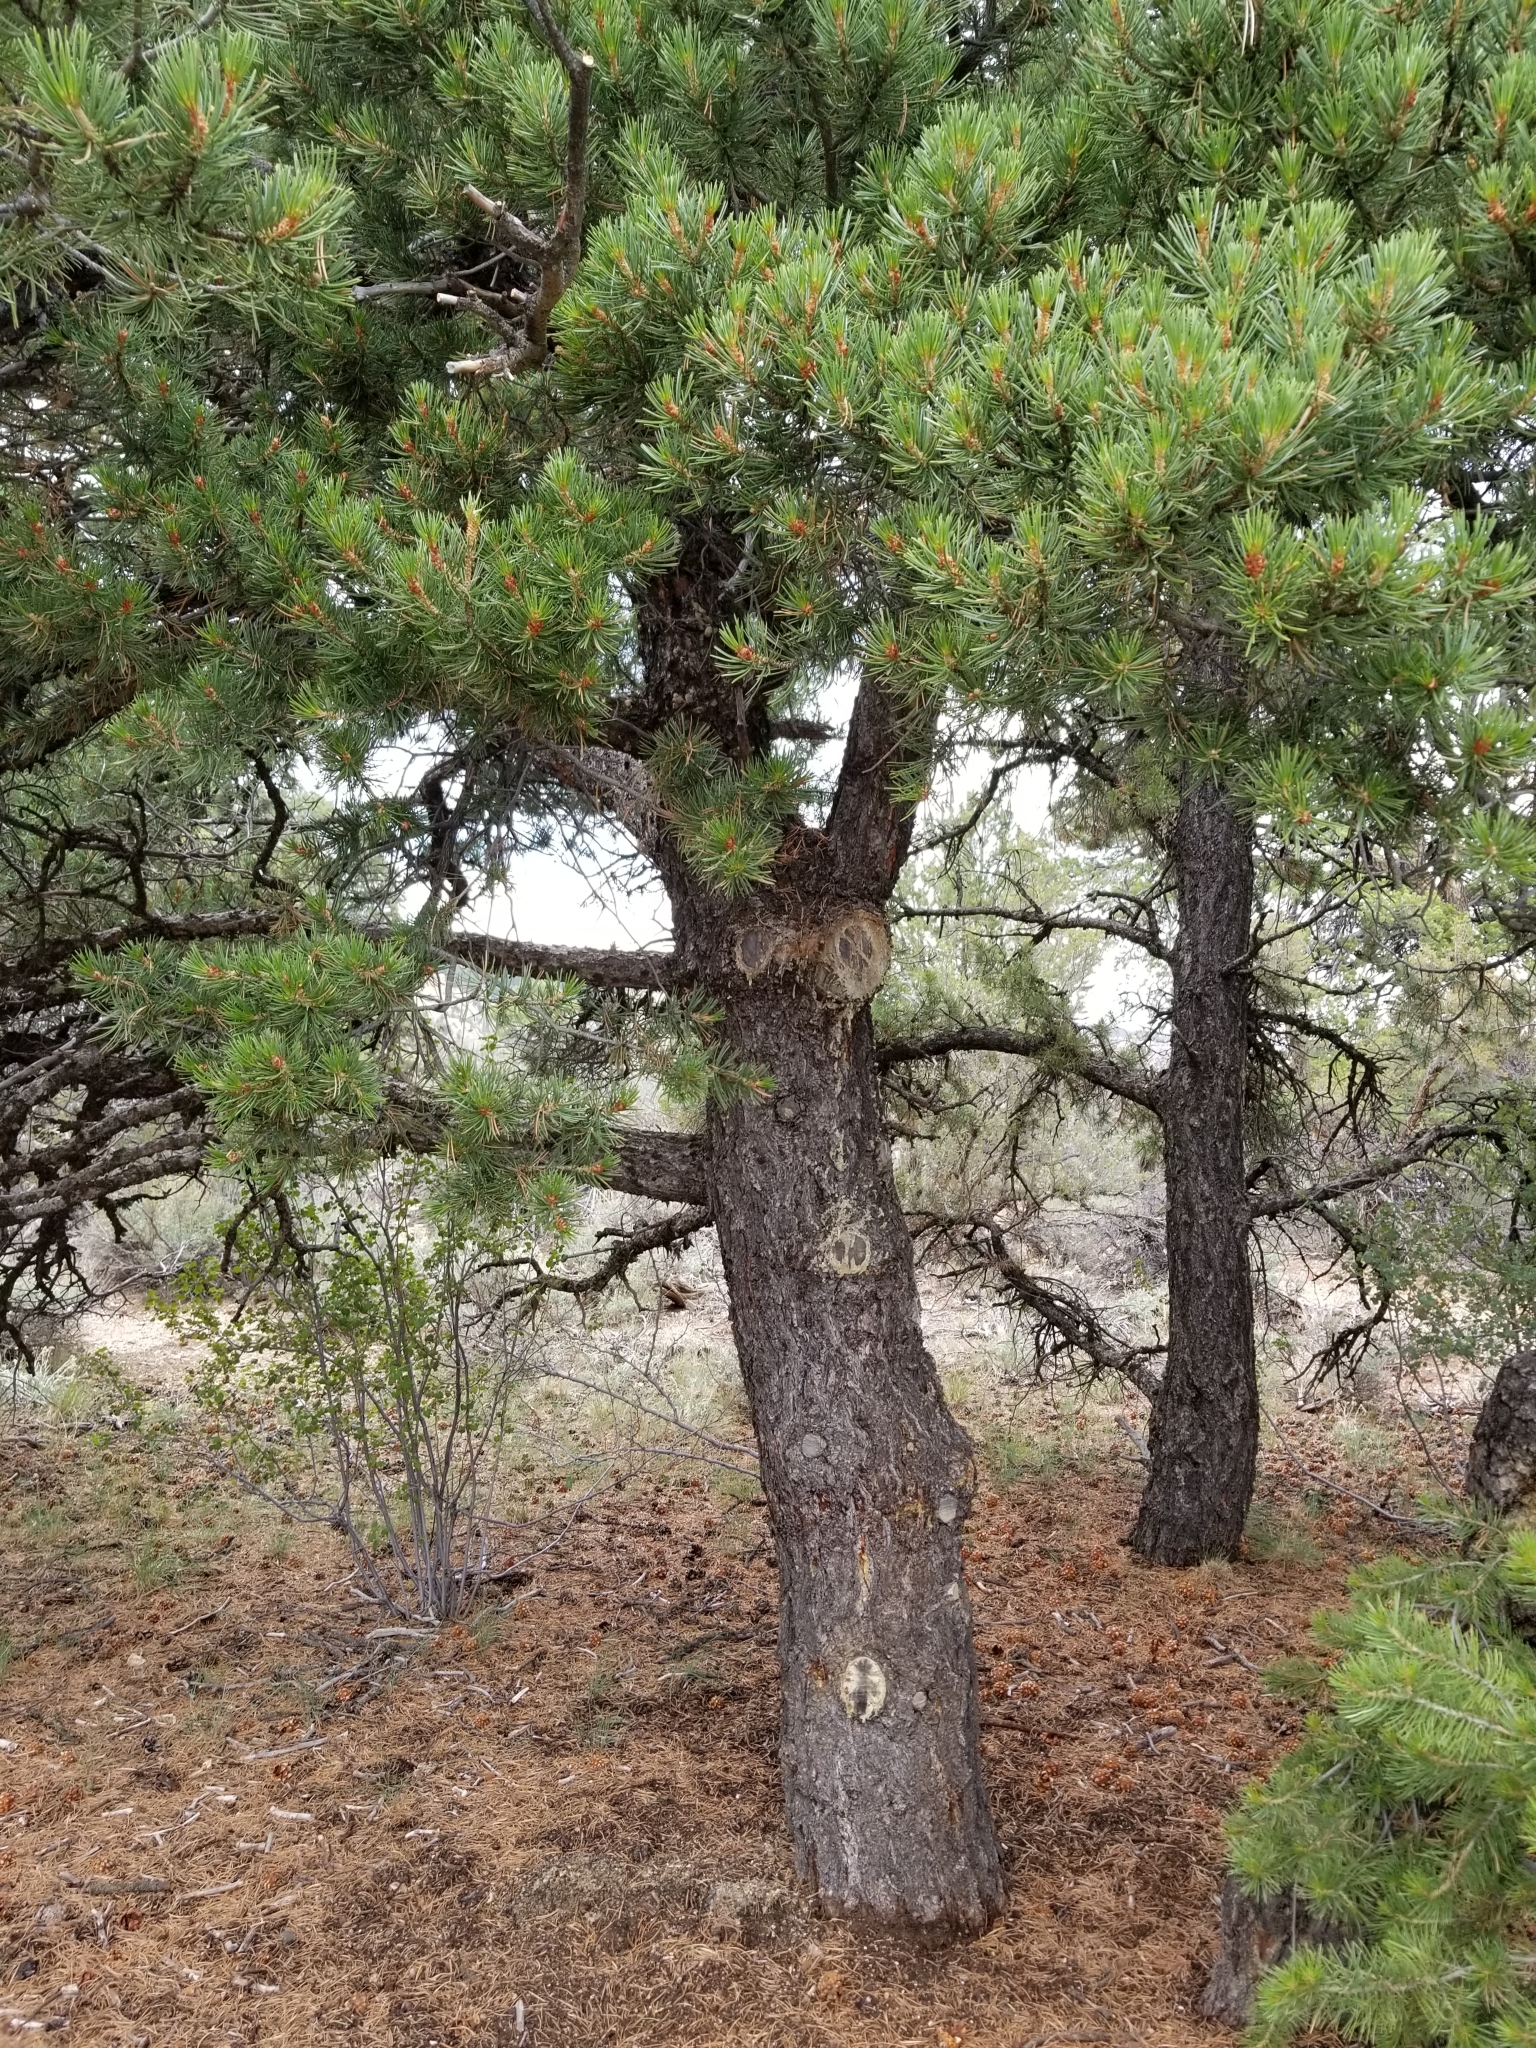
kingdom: Plantae
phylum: Tracheophyta
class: Pinopsida
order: Pinales
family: Pinaceae
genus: Pinus
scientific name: Pinus edulis
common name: Colorado pinyon
